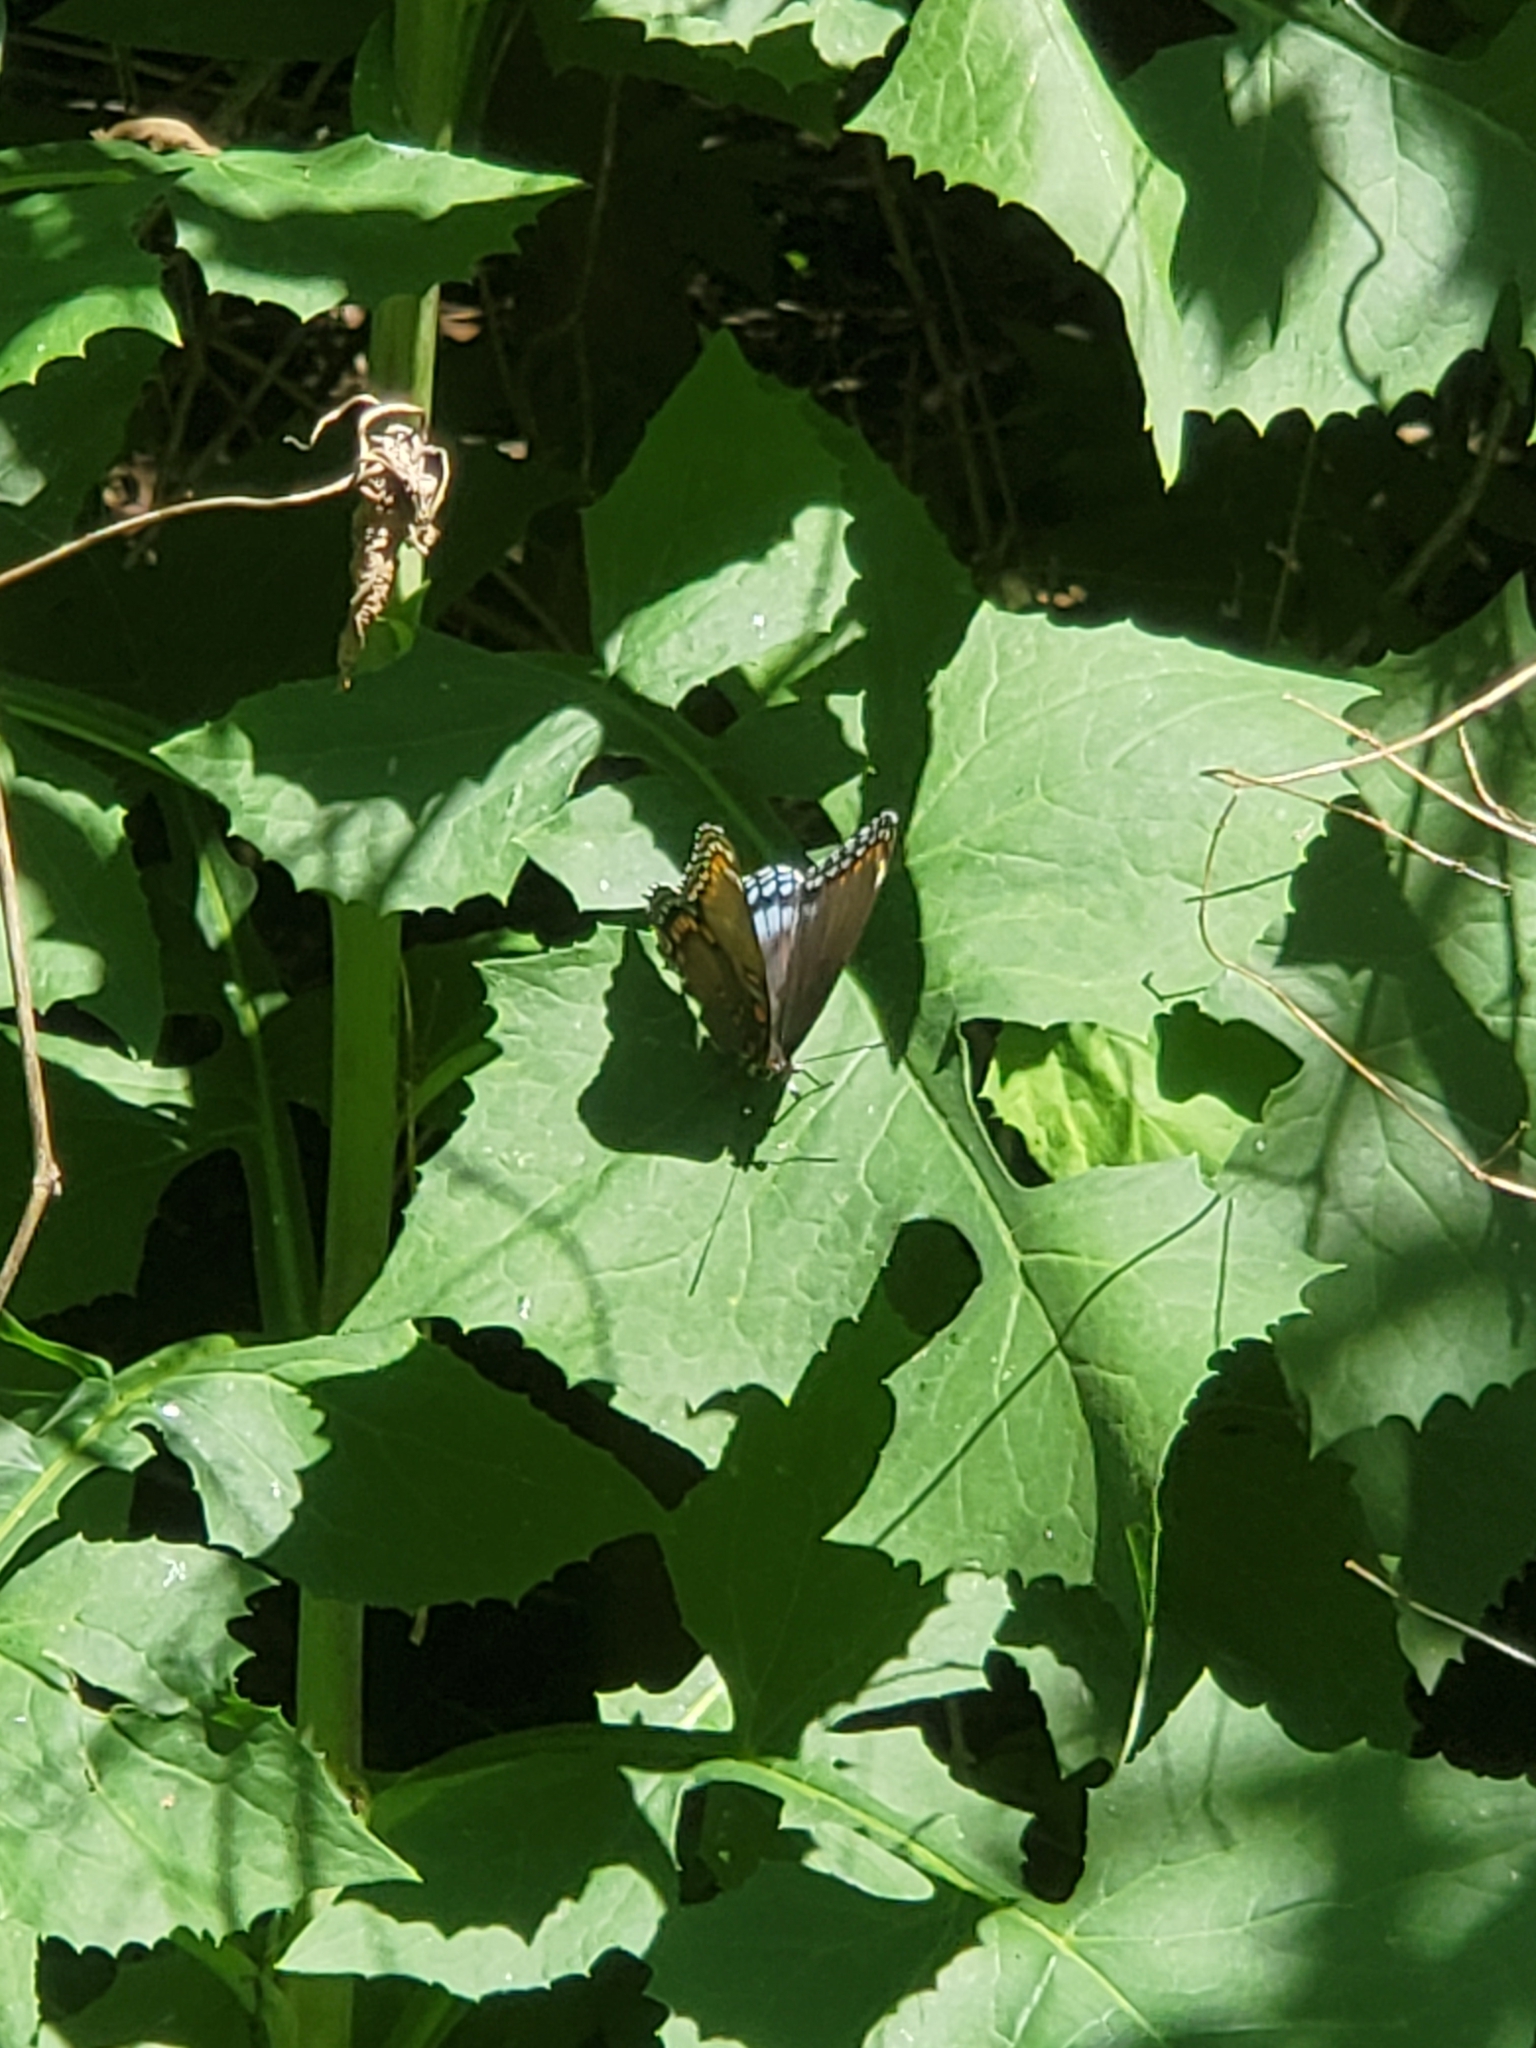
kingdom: Animalia
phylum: Arthropoda
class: Insecta
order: Lepidoptera
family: Nymphalidae
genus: Limenitis
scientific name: Limenitis astyanax
